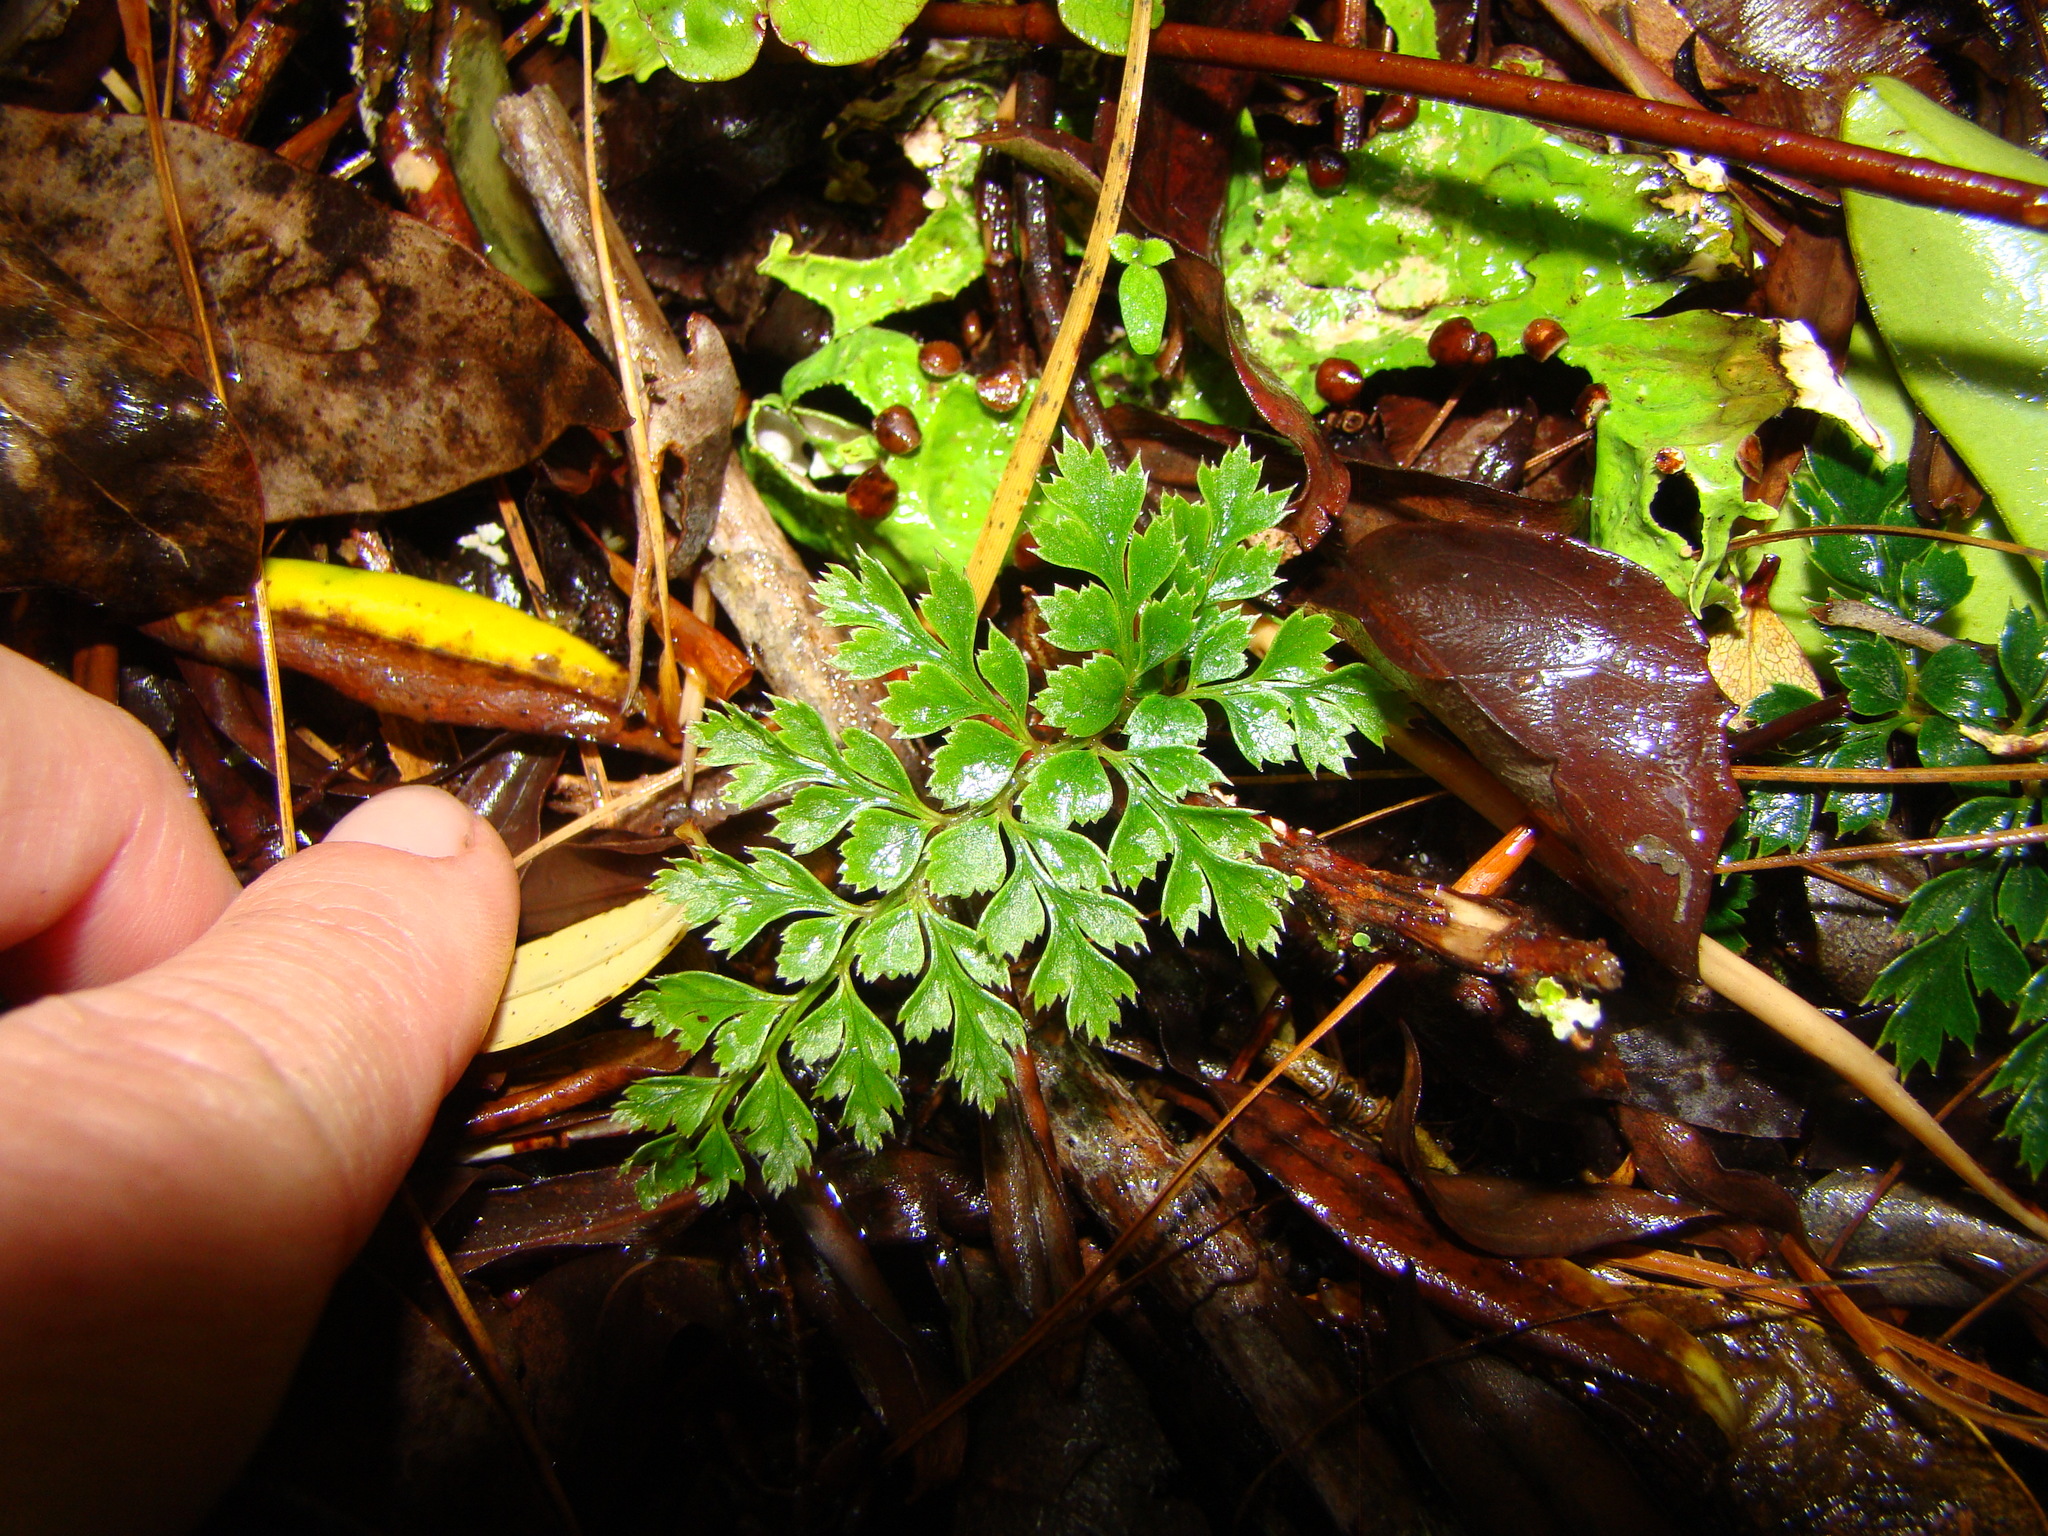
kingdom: Plantae
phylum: Tracheophyta
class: Polypodiopsida
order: Polypodiales
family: Dryopteridaceae
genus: Polystichum
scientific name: Polystichum vestitum
